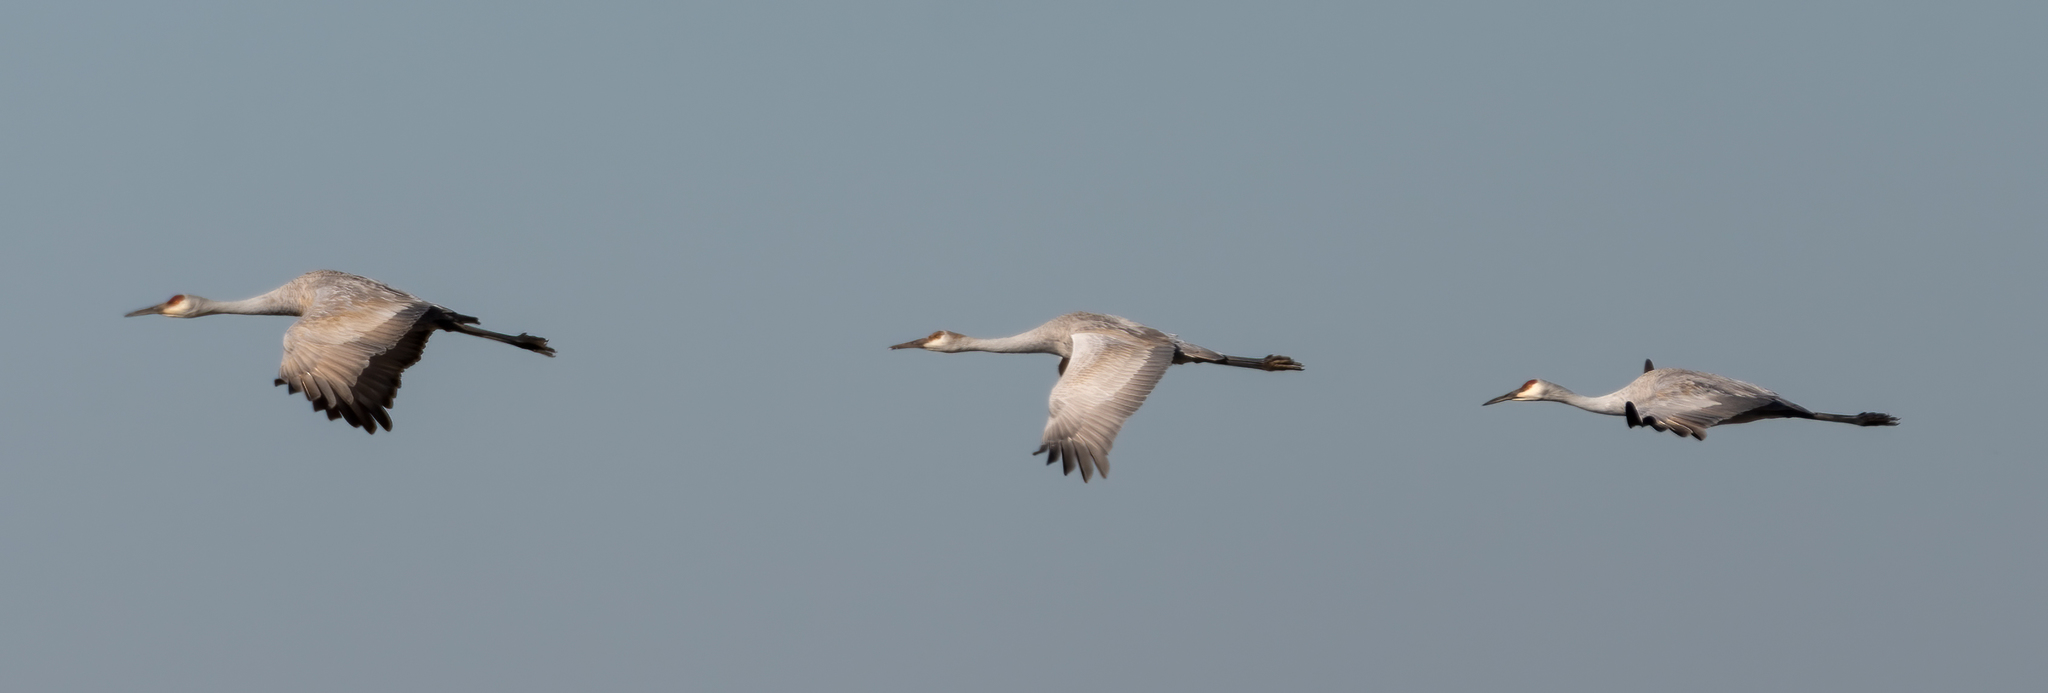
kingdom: Animalia
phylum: Chordata
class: Aves
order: Gruiformes
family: Gruidae
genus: Grus
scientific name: Grus canadensis
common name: Sandhill crane
